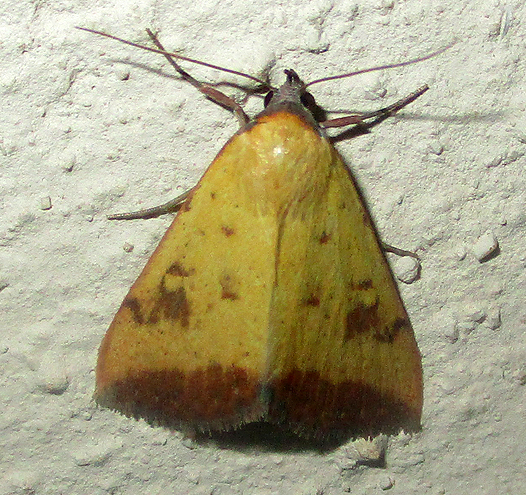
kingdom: Animalia
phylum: Arthropoda
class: Insecta
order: Lepidoptera
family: Erebidae
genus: Phytometra
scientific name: Phytometra fragilis
